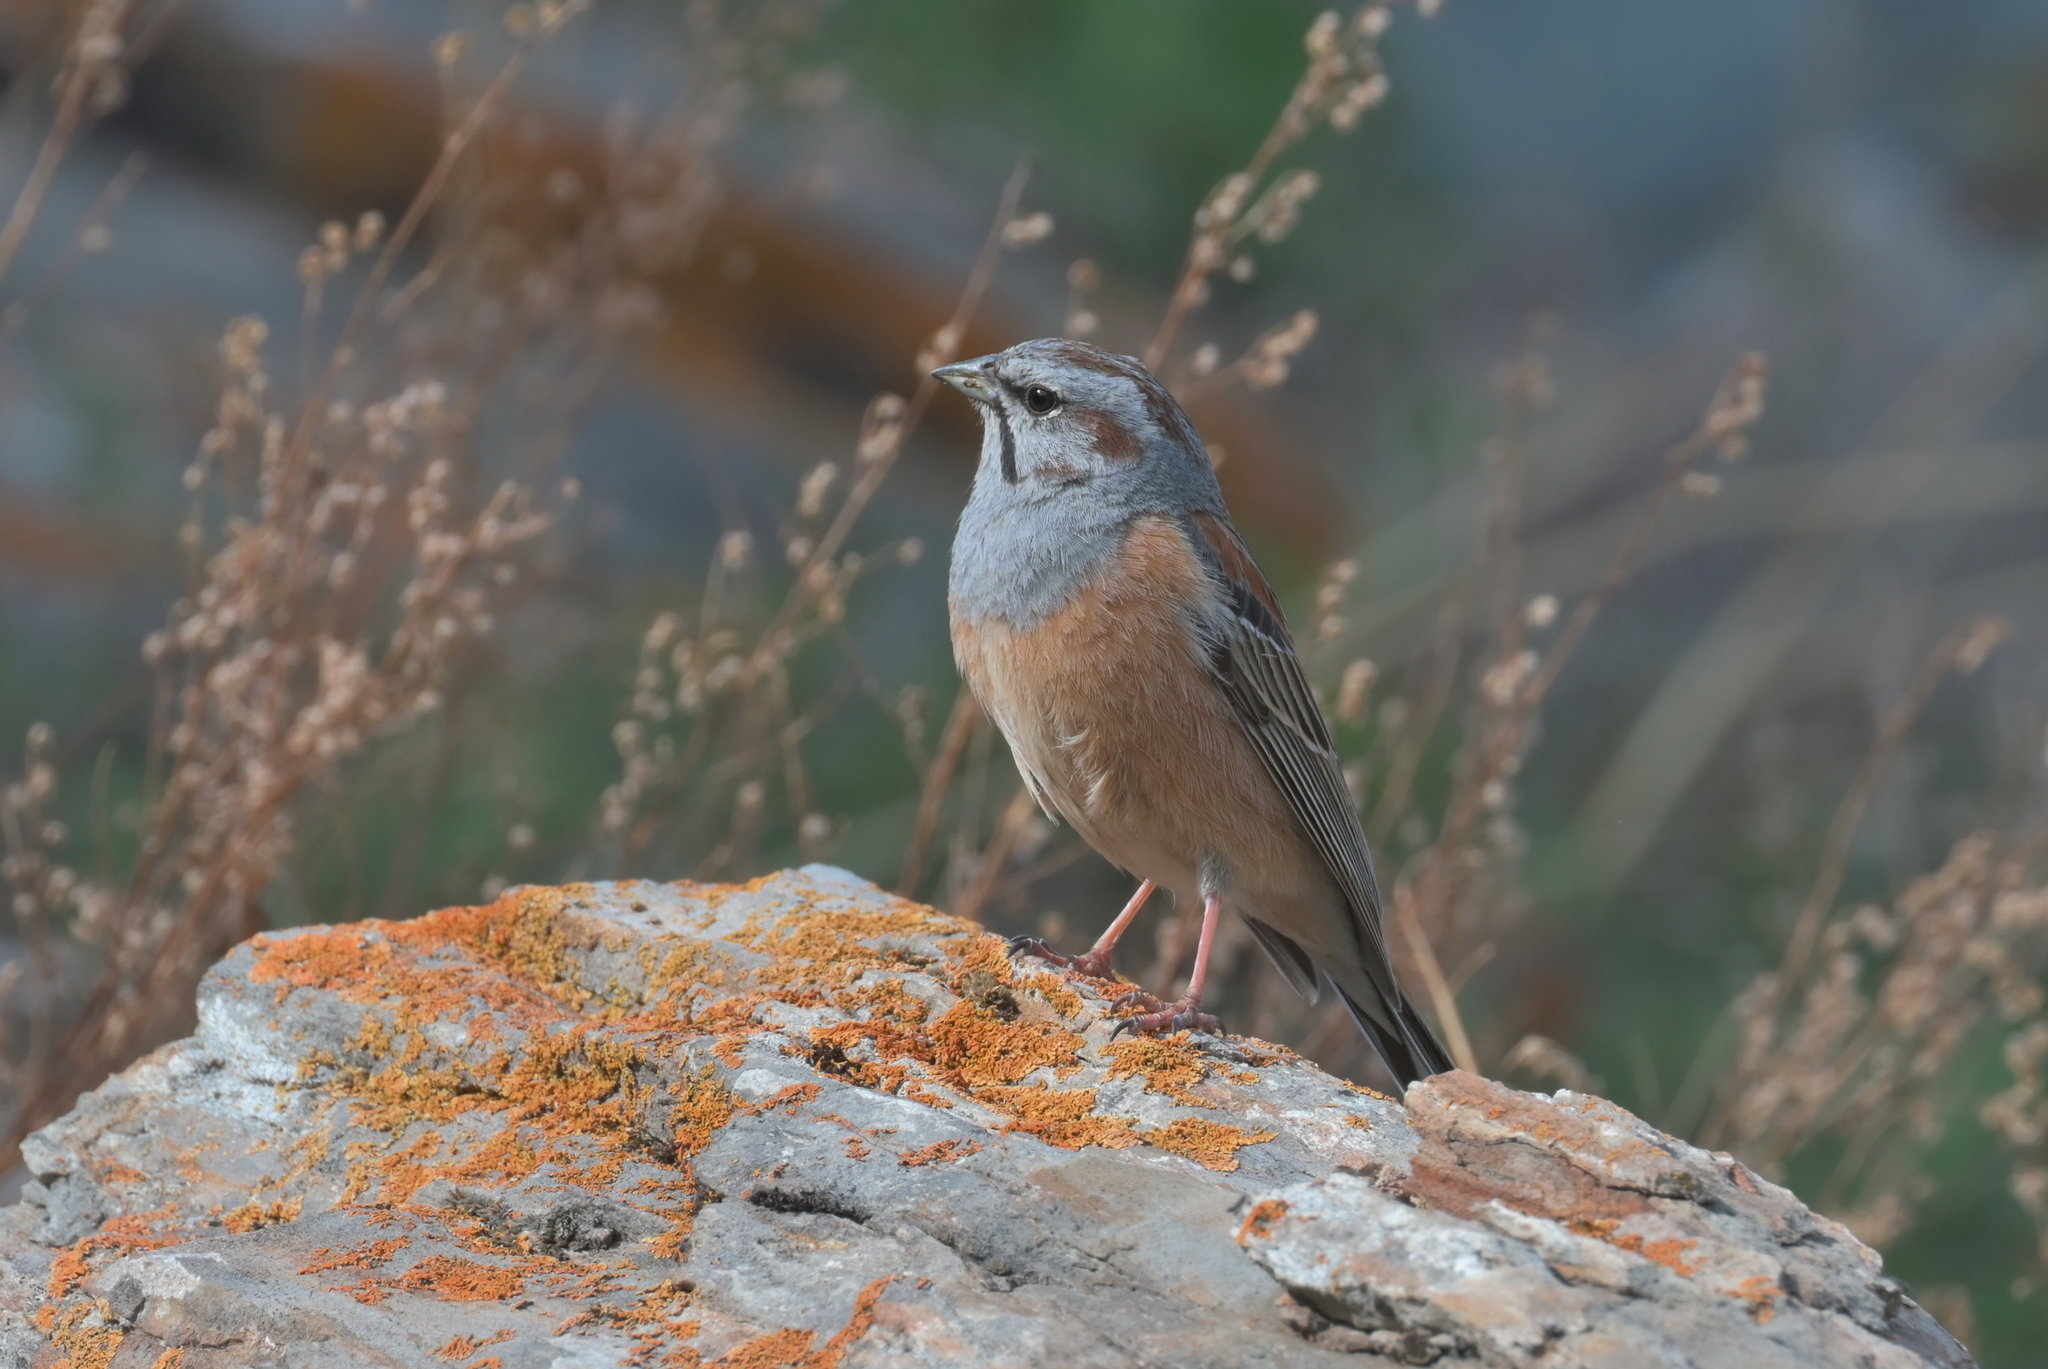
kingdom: Animalia
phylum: Chordata
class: Aves
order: Passeriformes
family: Emberizidae
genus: Emberiza
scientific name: Emberiza godlewskii
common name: Godlewski's bunting
